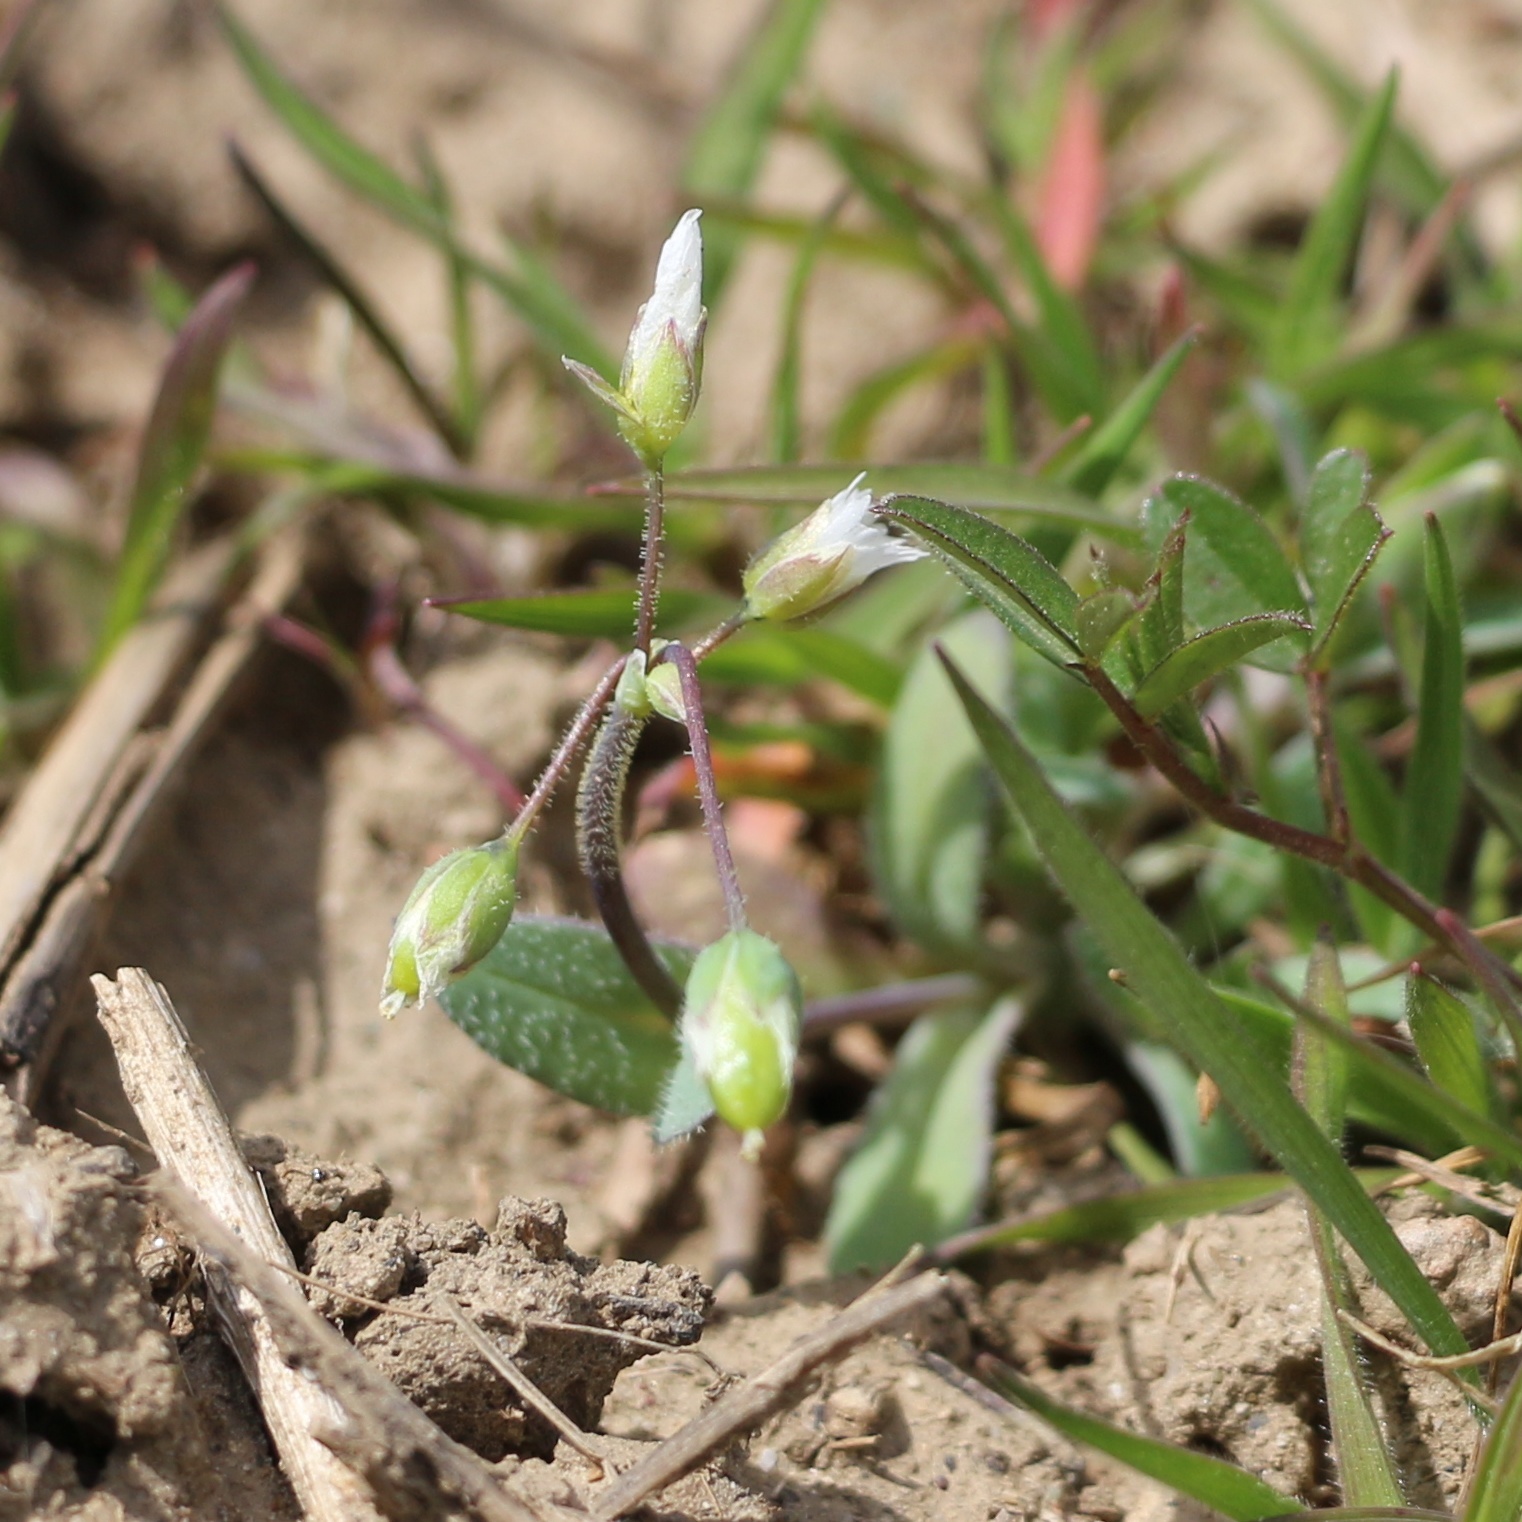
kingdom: Plantae
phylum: Tracheophyta
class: Magnoliopsida
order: Caryophyllales
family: Caryophyllaceae
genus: Holosteum
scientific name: Holosteum umbellatum
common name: Jagged chickweed
